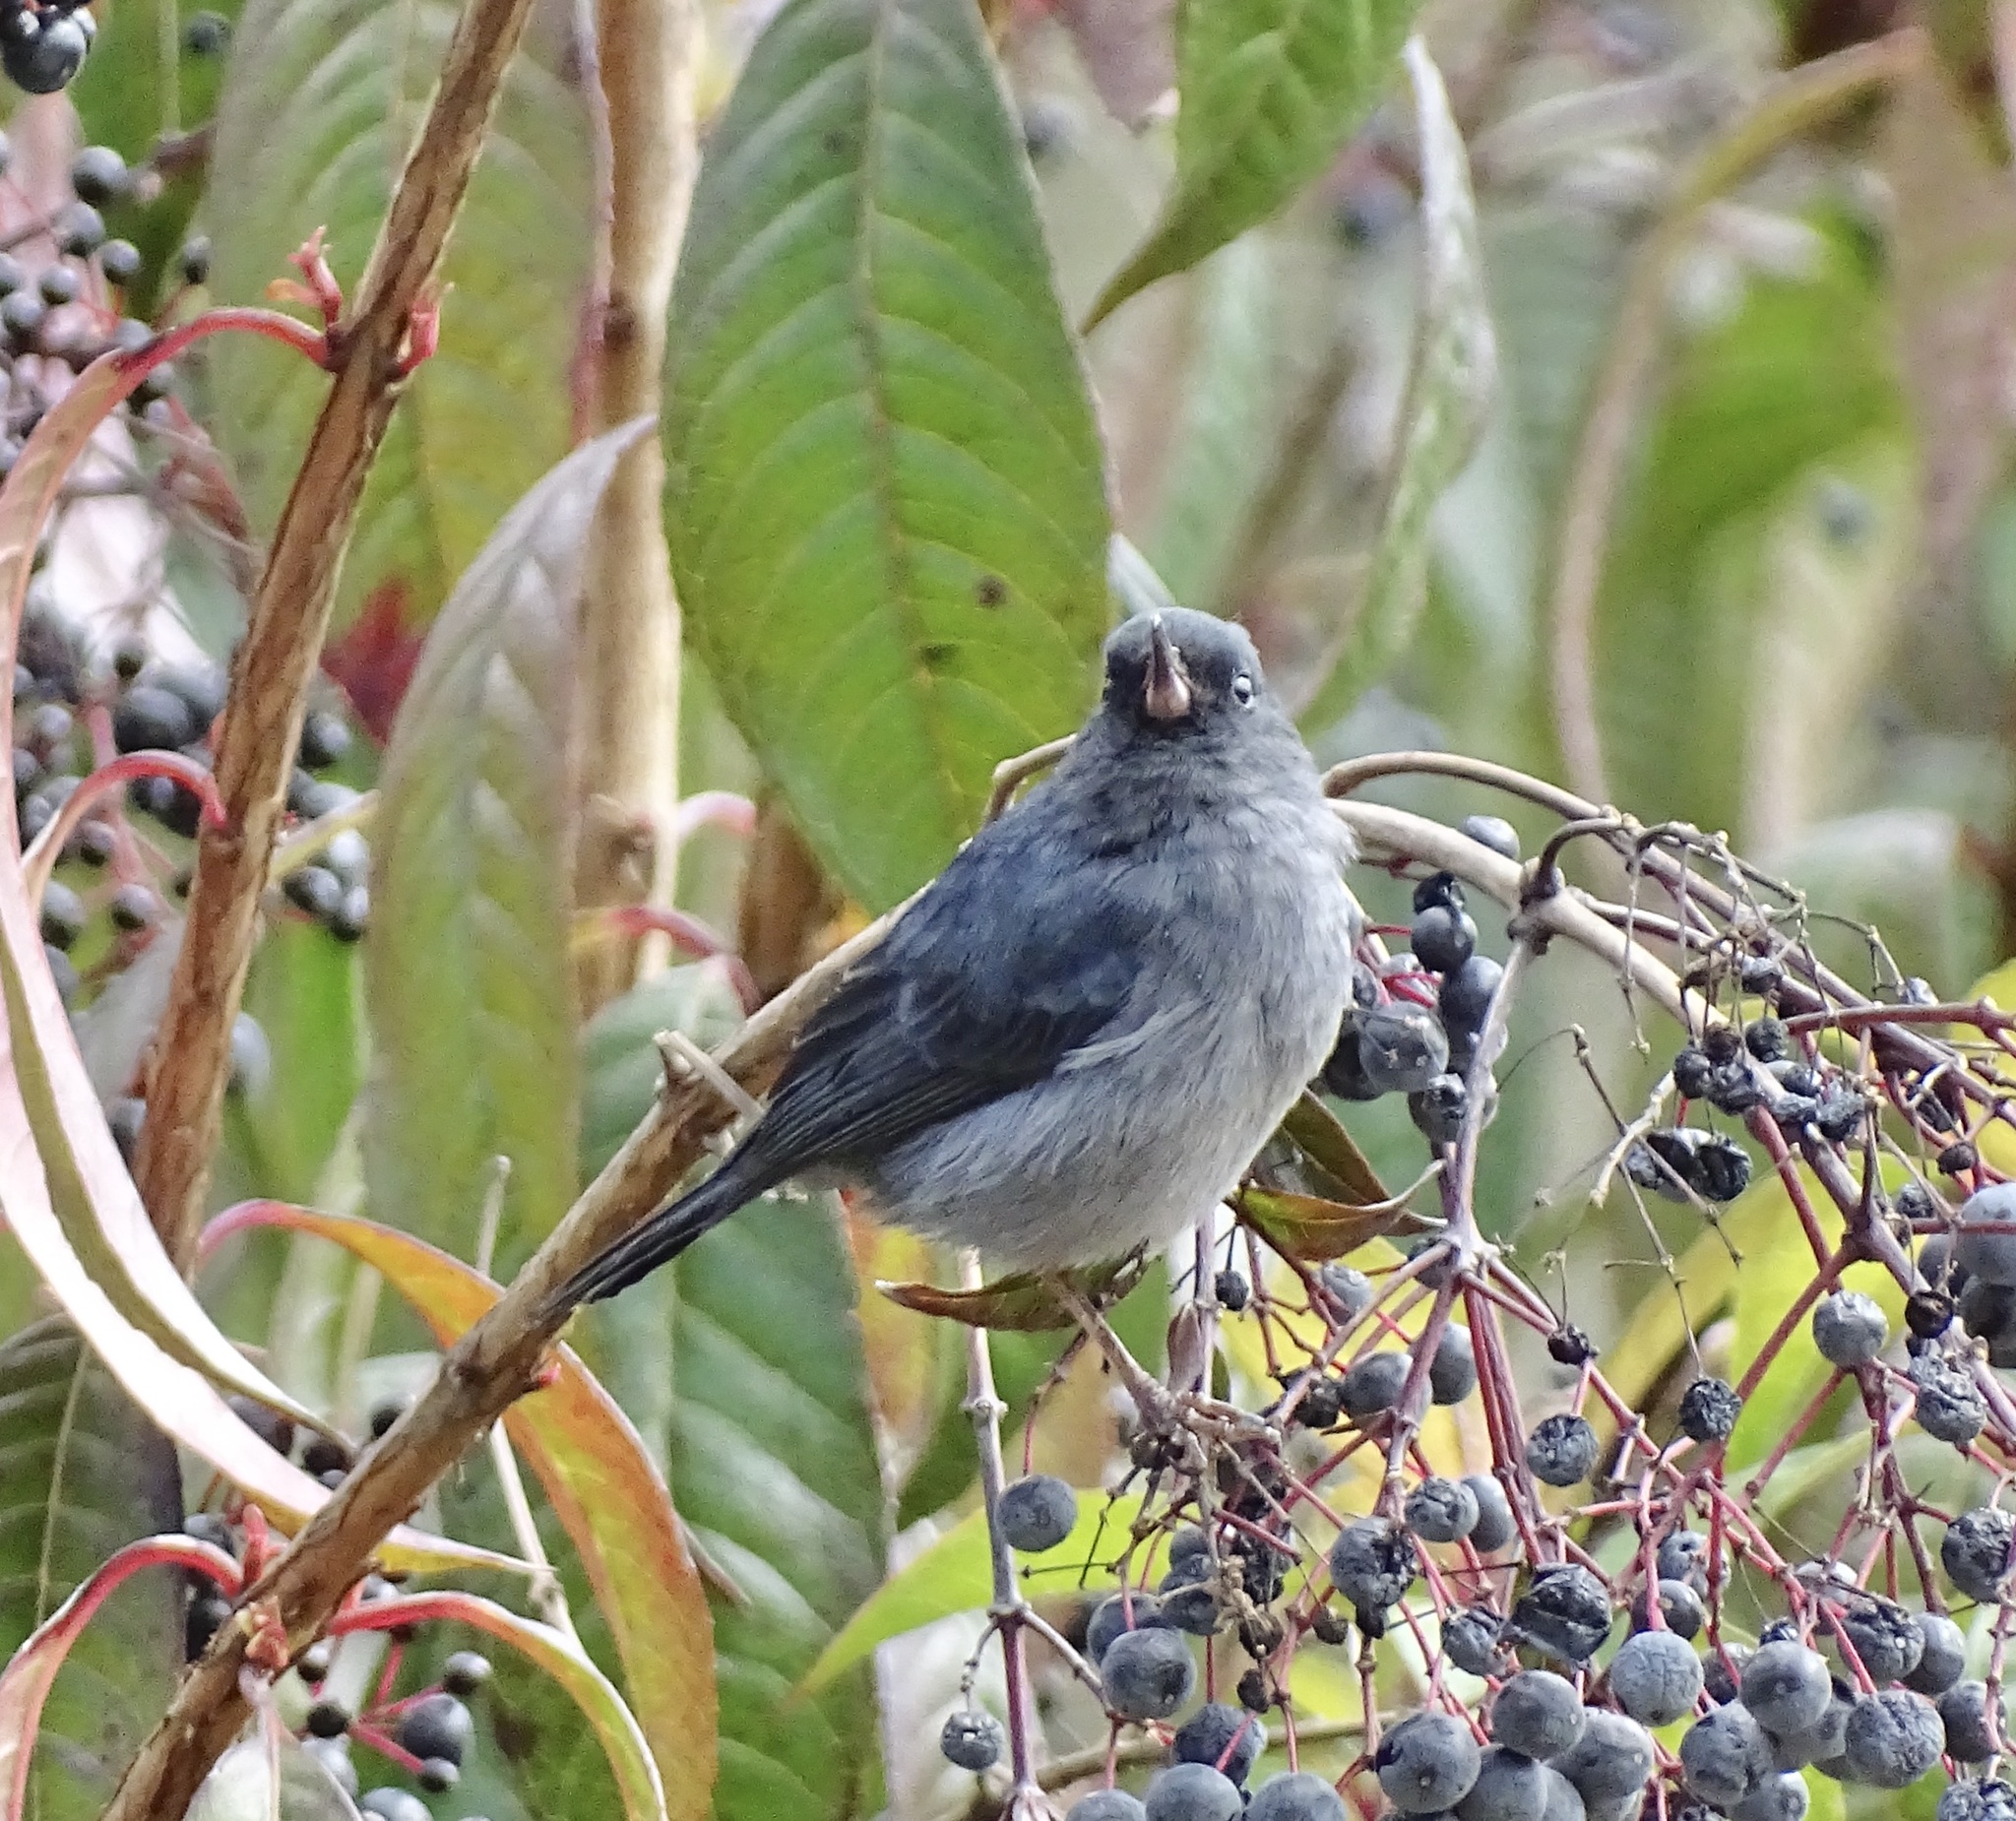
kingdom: Animalia
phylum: Chordata
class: Aves
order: Passeriformes
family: Thraupidae
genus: Diglossa
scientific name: Diglossa plumbea
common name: Slaty flowerpiercer
